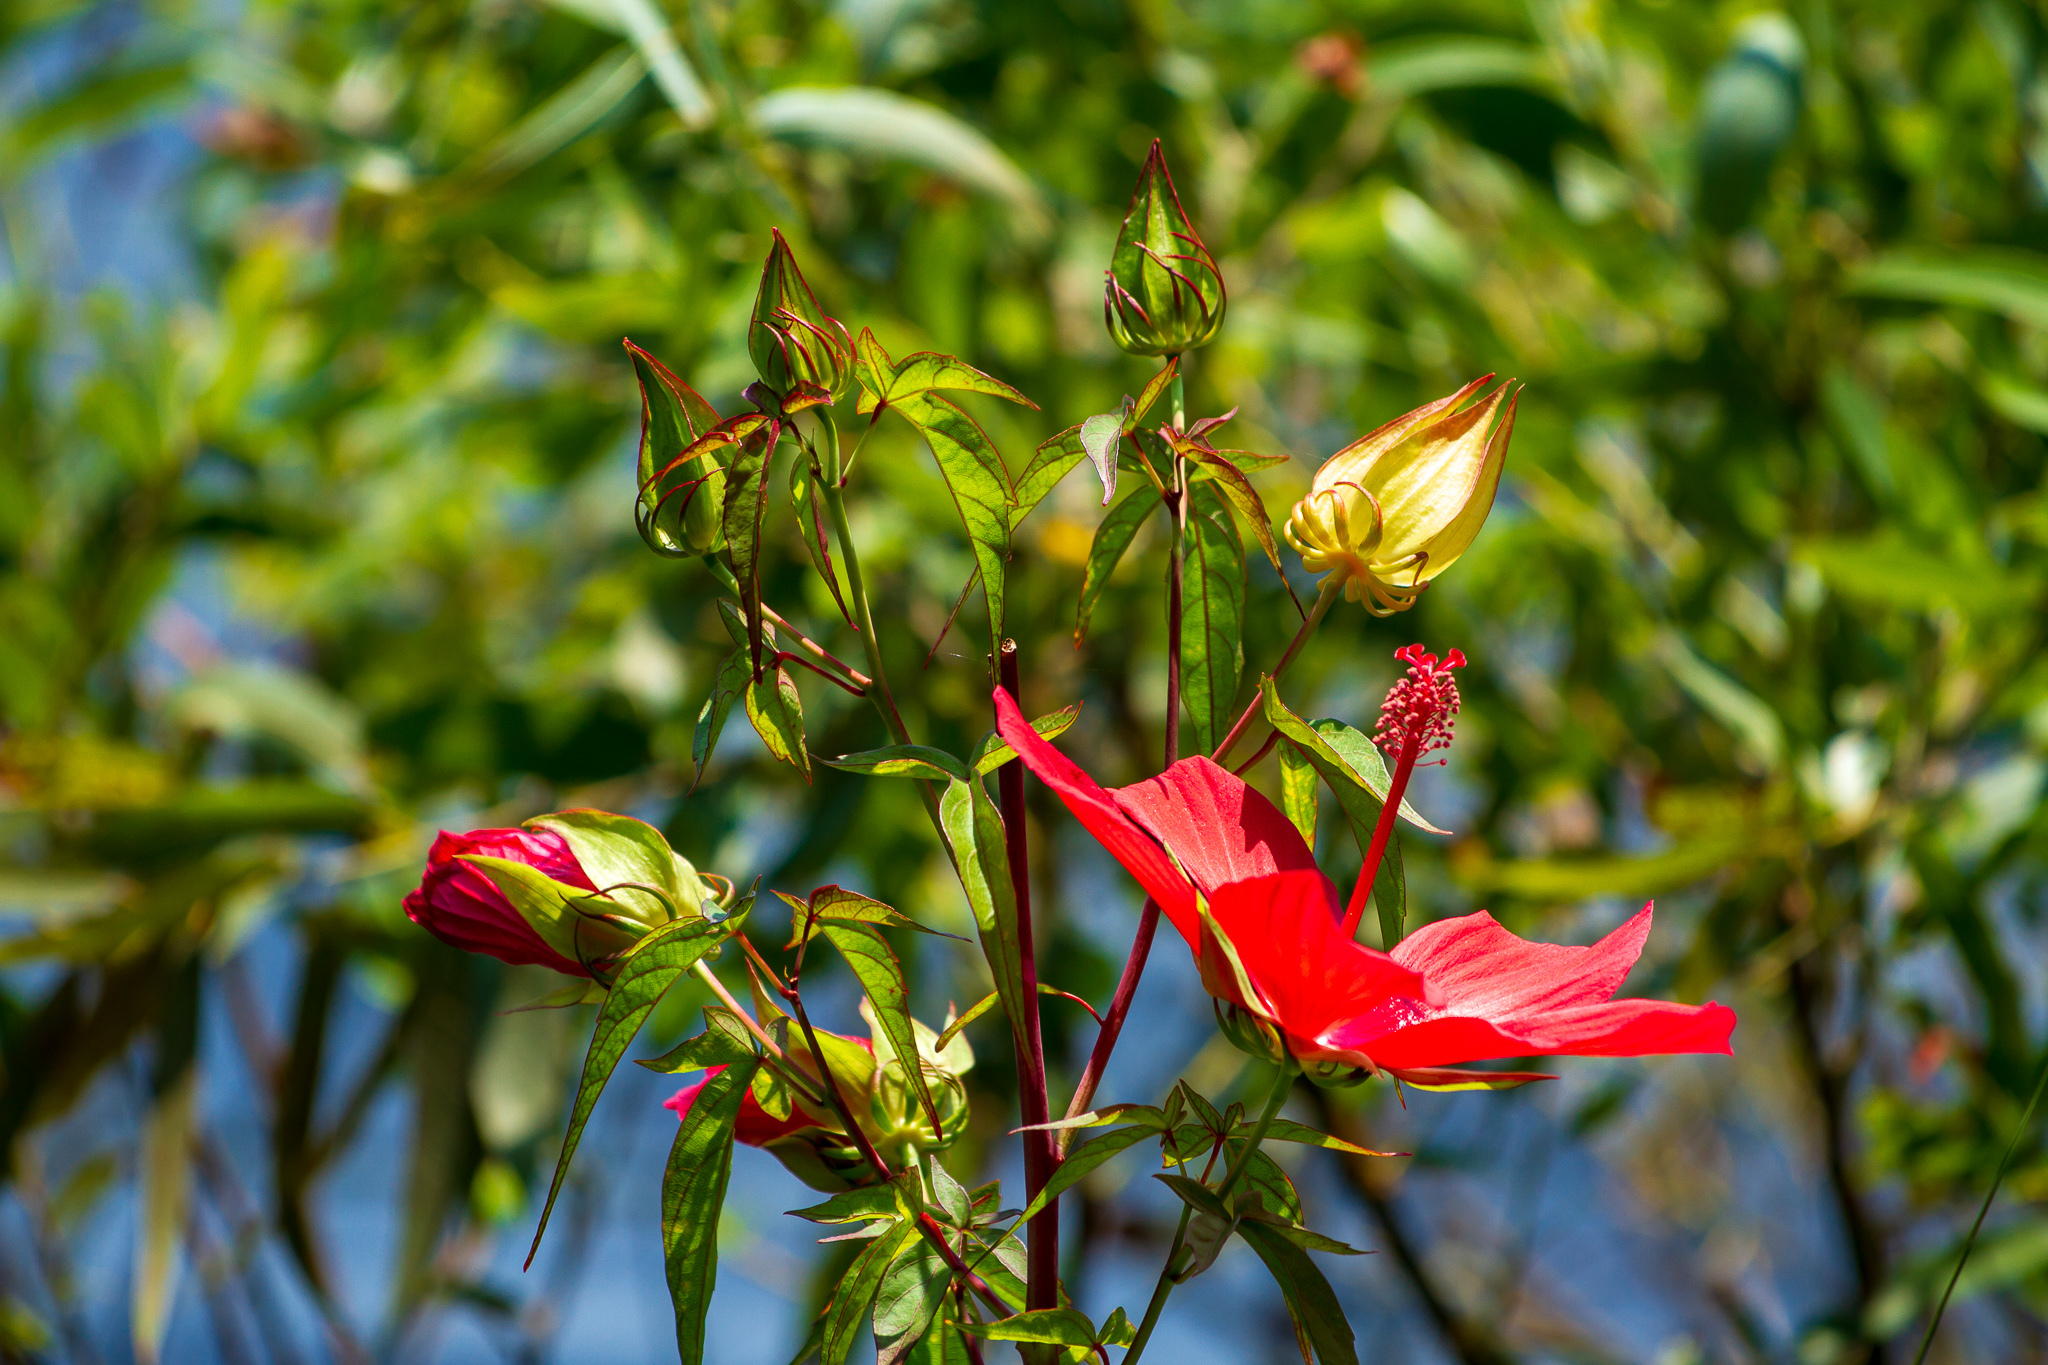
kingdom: Plantae
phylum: Tracheophyta
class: Magnoliopsida
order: Malvales
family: Malvaceae
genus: Hibiscus
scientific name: Hibiscus coccineus
